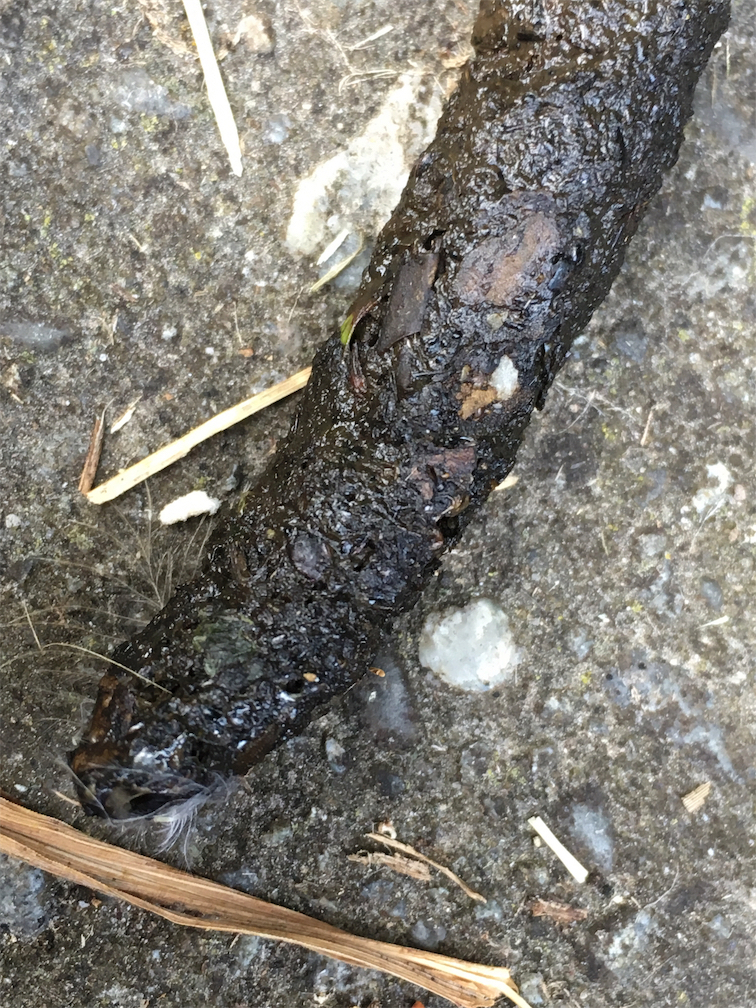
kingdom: Animalia
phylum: Chordata
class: Mammalia
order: Erinaceomorpha
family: Erinaceidae
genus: Erinaceus
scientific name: Erinaceus europaeus
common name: West european hedgehog
